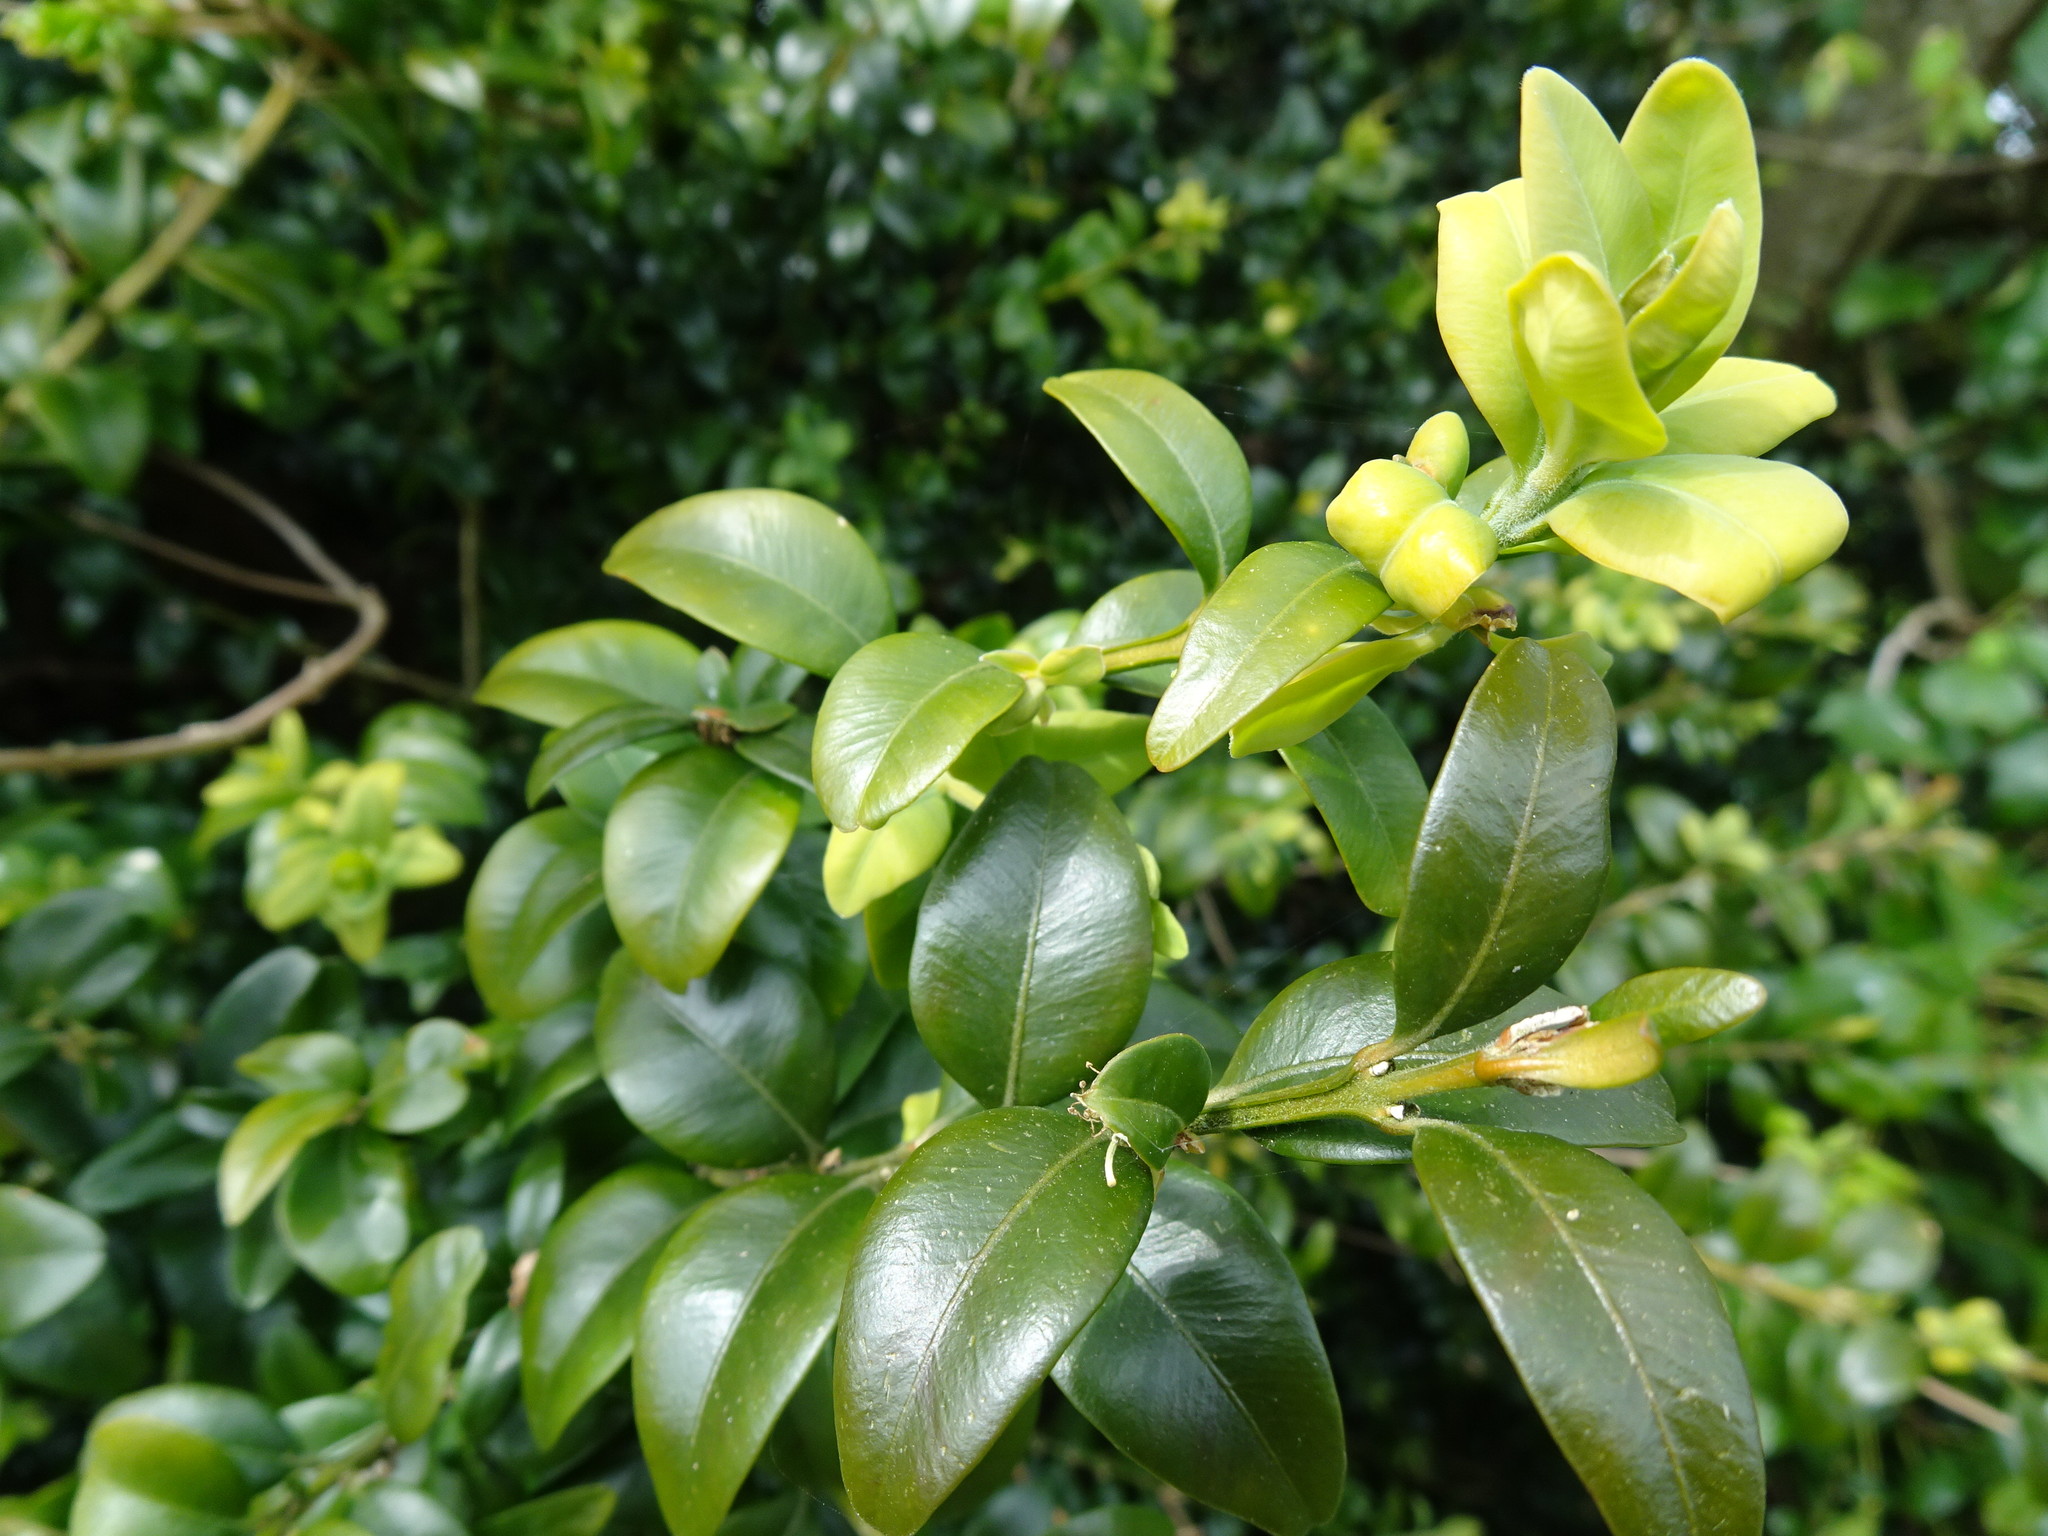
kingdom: Plantae
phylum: Tracheophyta
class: Magnoliopsida
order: Buxales
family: Buxaceae
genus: Buxus
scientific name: Buxus sempervirens
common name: Box
